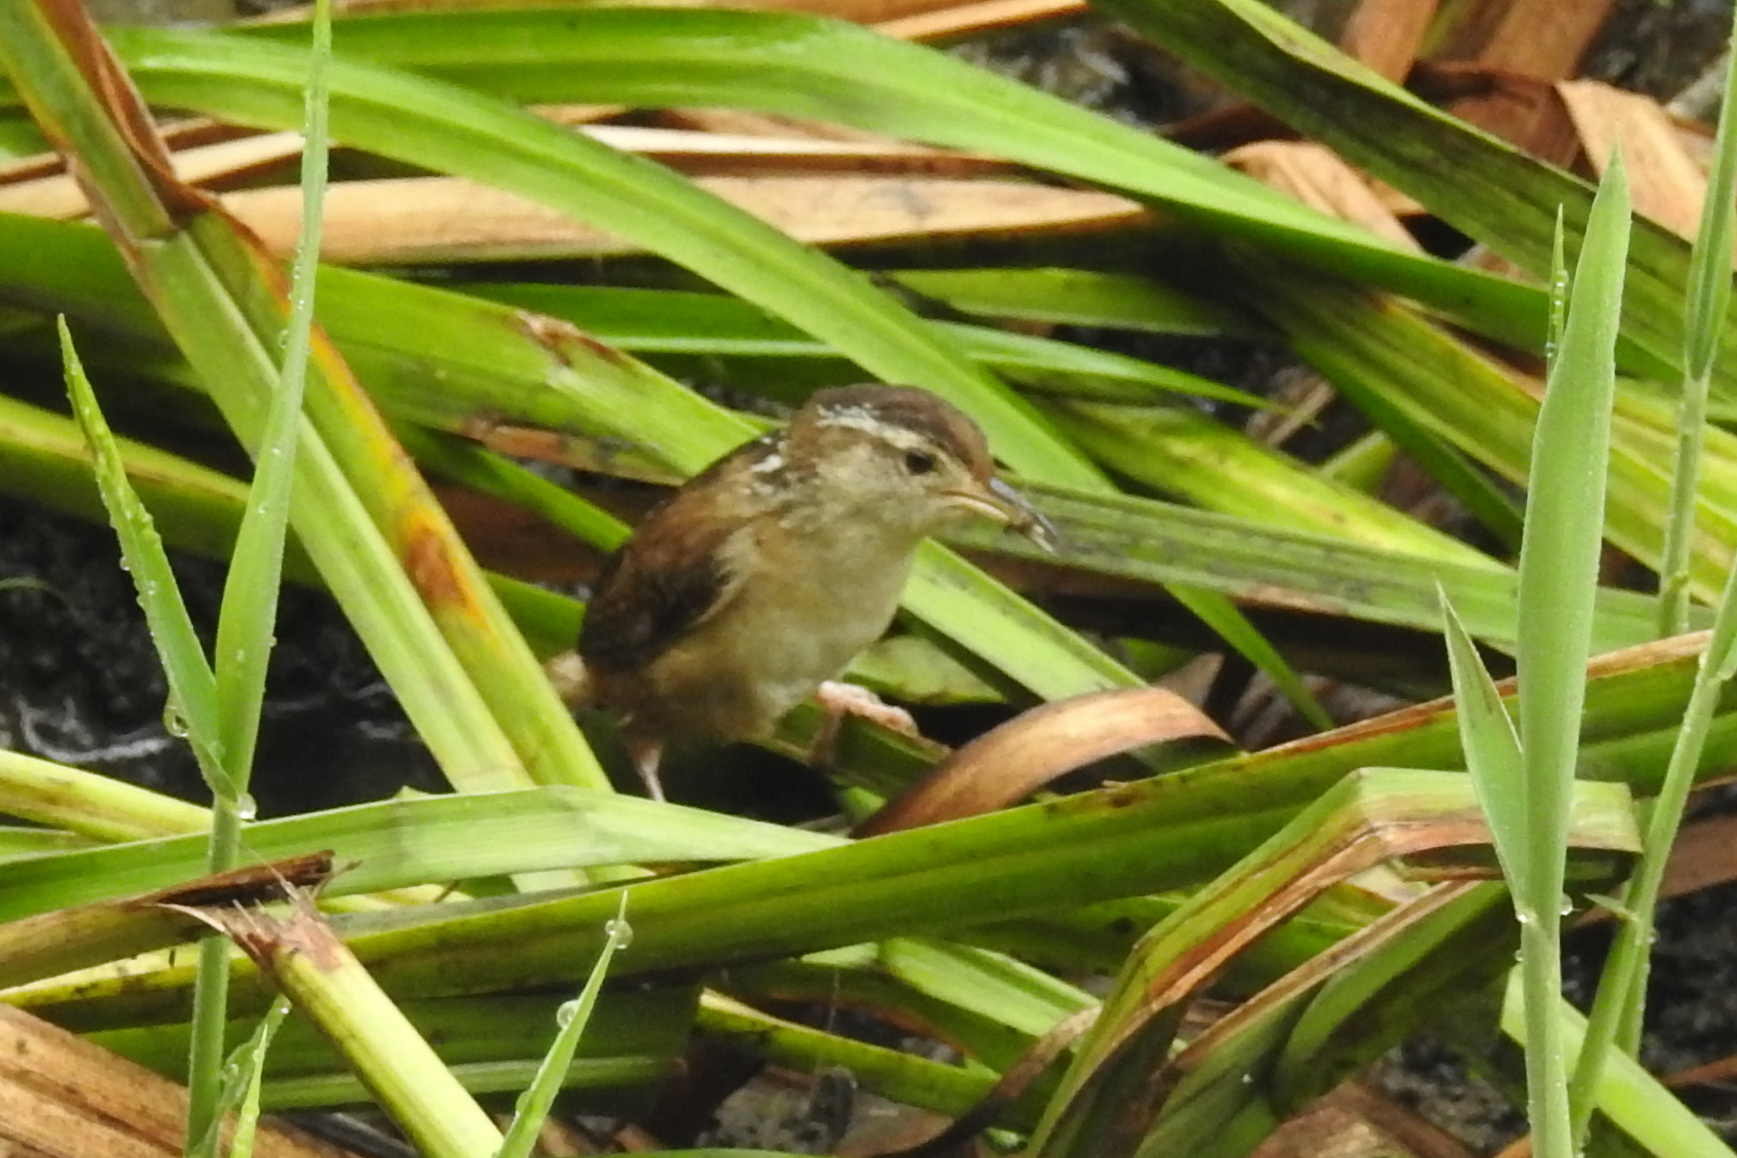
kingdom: Animalia
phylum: Chordata
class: Aves
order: Passeriformes
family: Troglodytidae
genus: Cistothorus
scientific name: Cistothorus palustris
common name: Marsh wren
